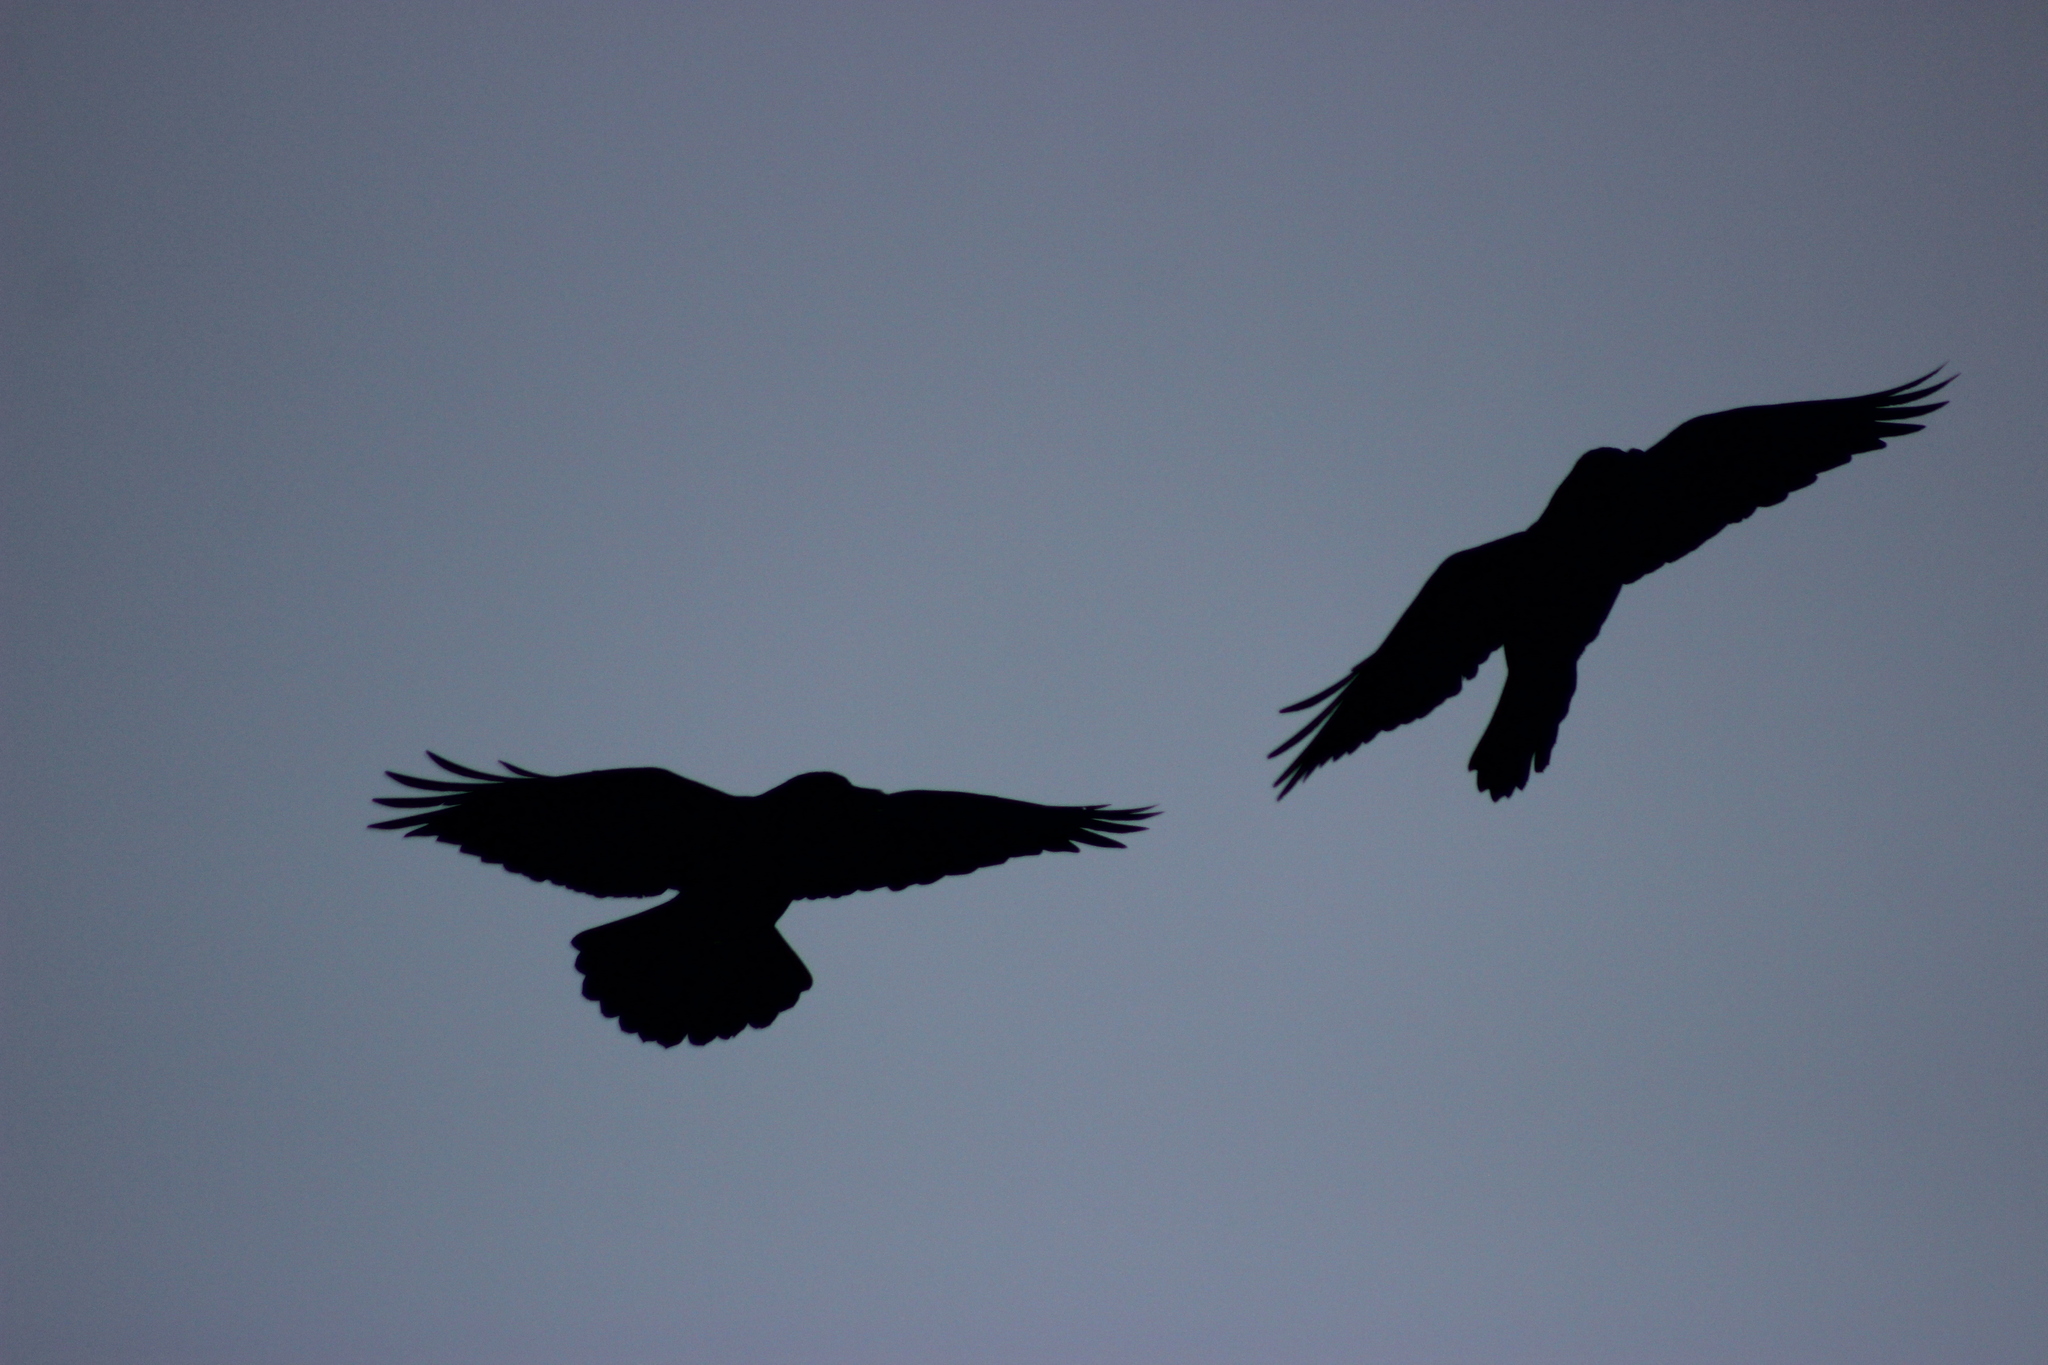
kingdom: Animalia
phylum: Chordata
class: Aves
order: Passeriformes
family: Corvidae
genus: Corvus
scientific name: Corvus corax
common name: Common raven
